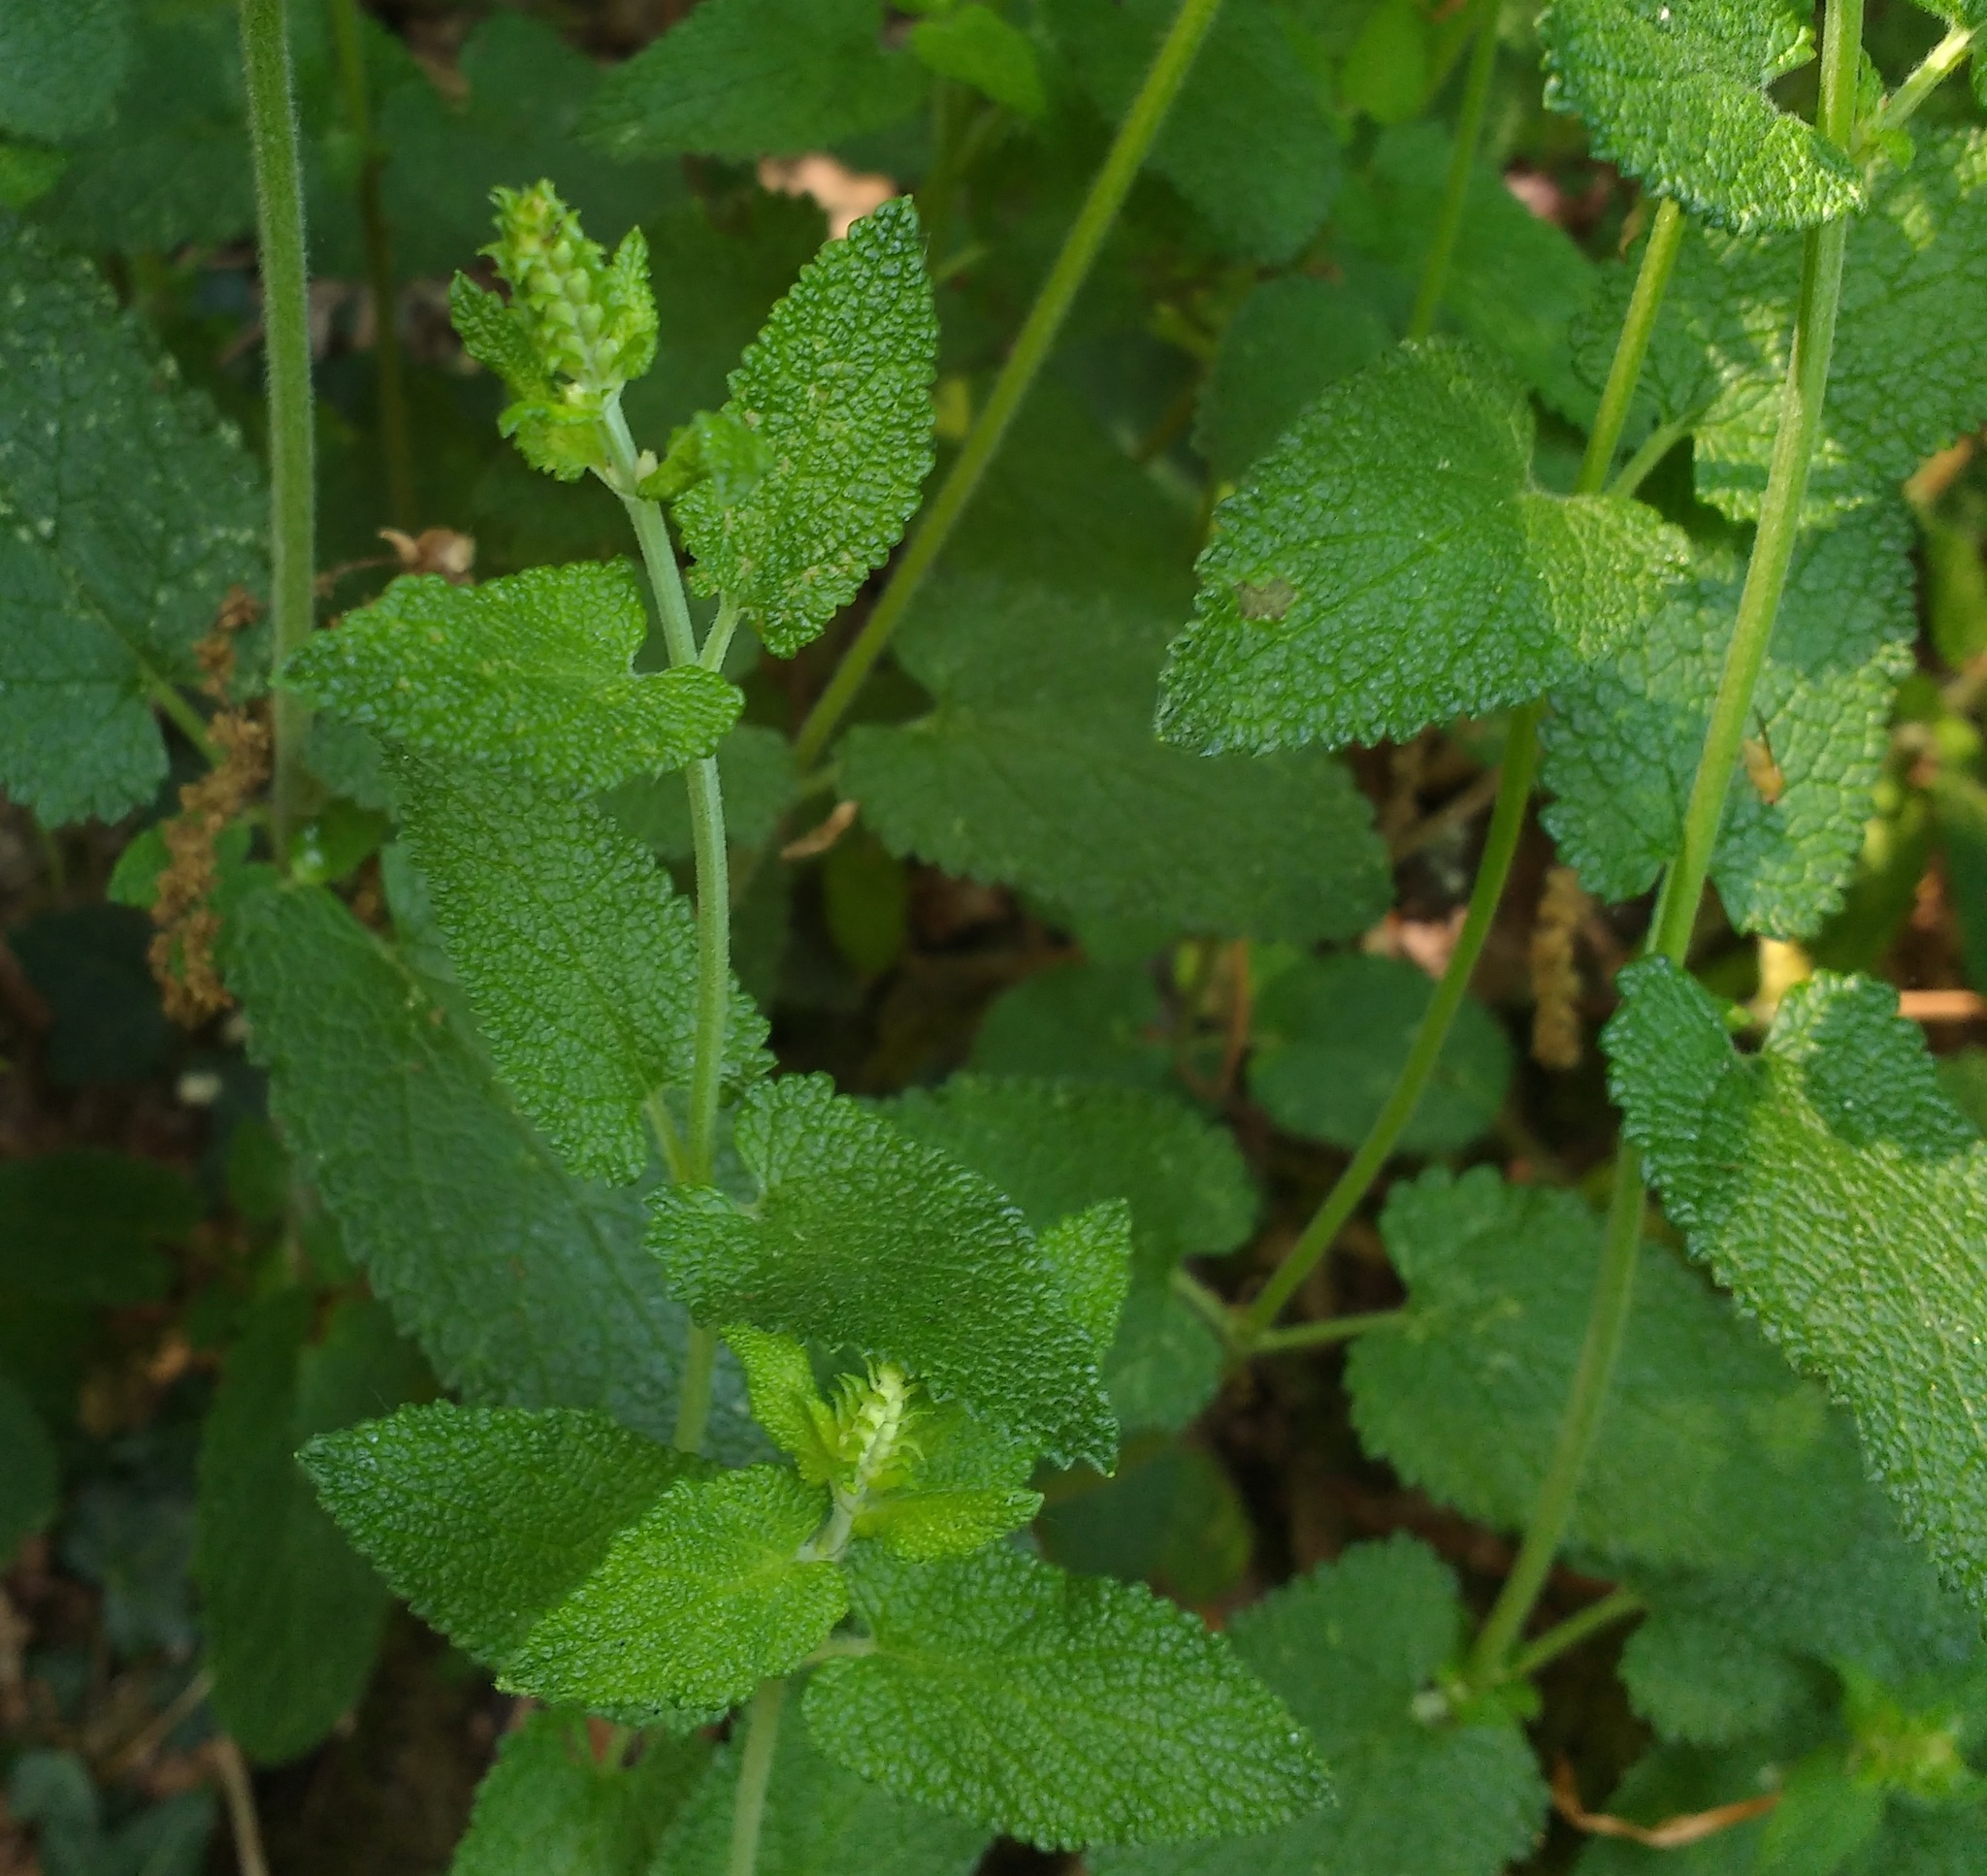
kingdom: Plantae
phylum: Tracheophyta
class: Magnoliopsida
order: Lamiales
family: Lamiaceae
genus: Teucrium
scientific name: Teucrium scorodonia
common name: Woodland germander
